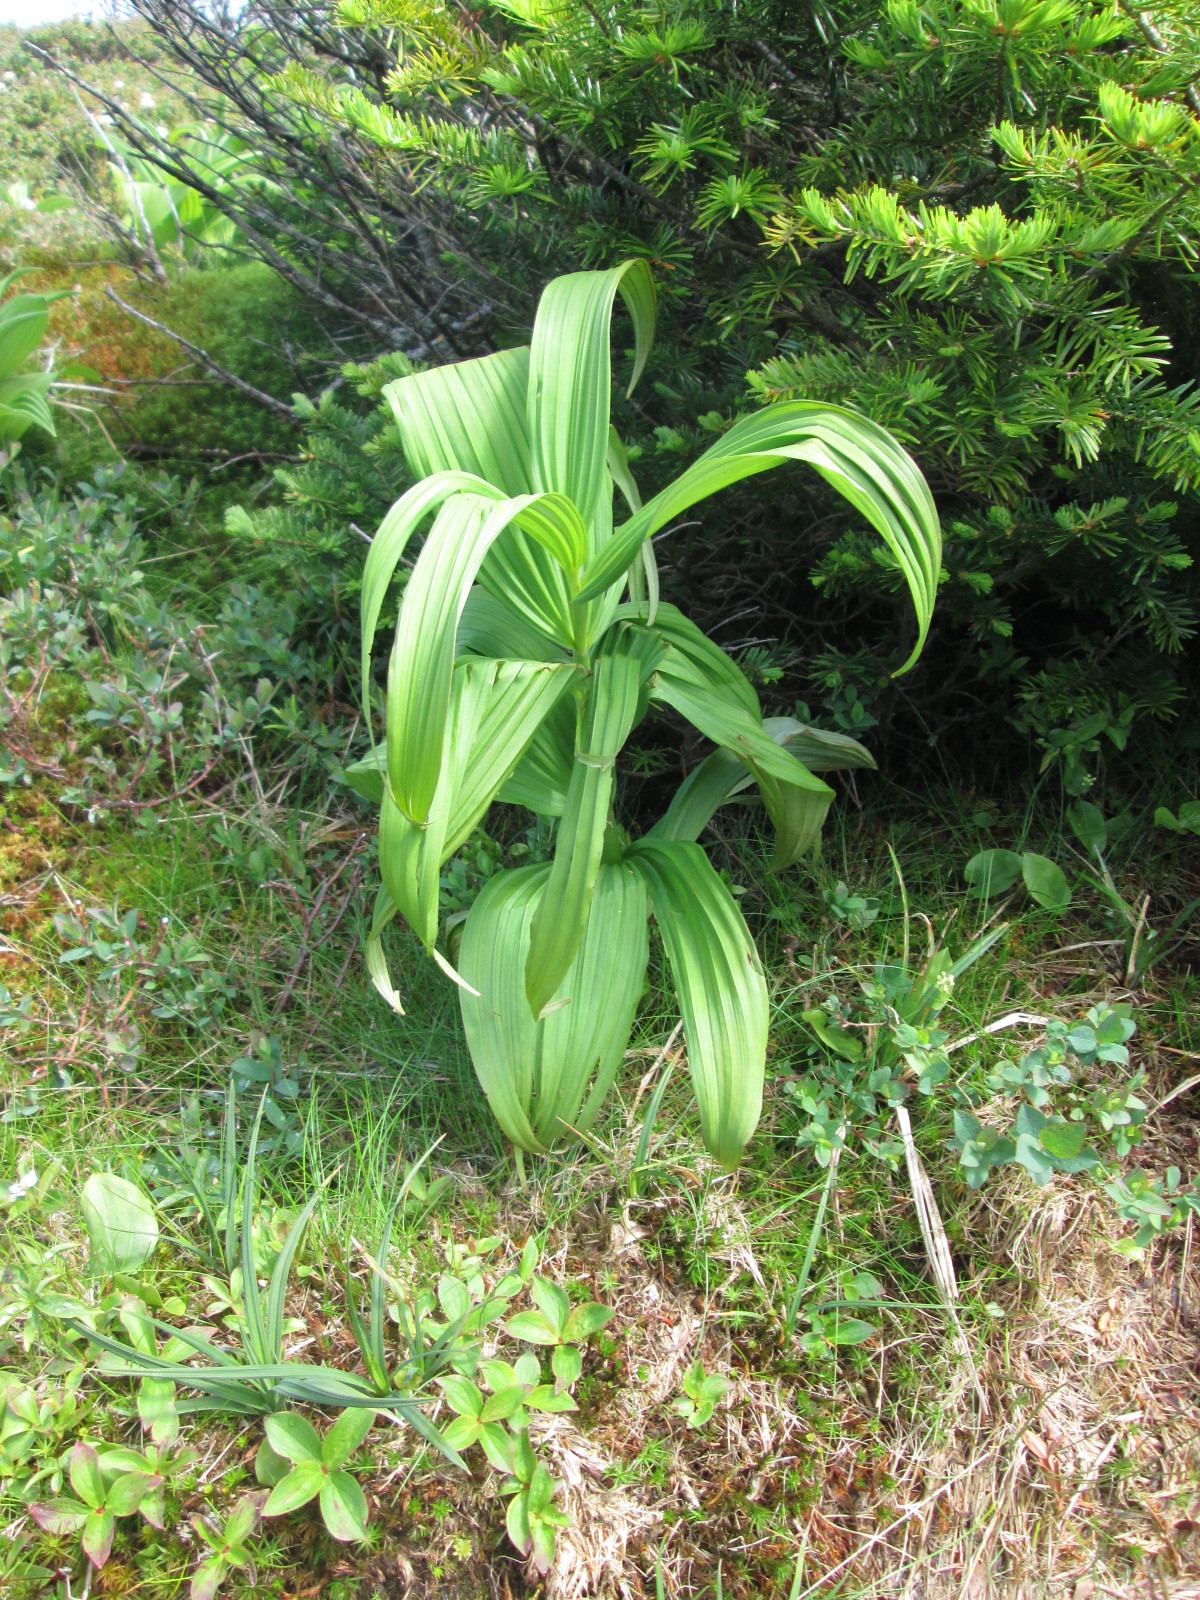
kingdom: Plantae
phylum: Tracheophyta
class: Liliopsida
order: Liliales
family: Melanthiaceae
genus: Veratrum
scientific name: Veratrum viride
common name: American false hellebore
